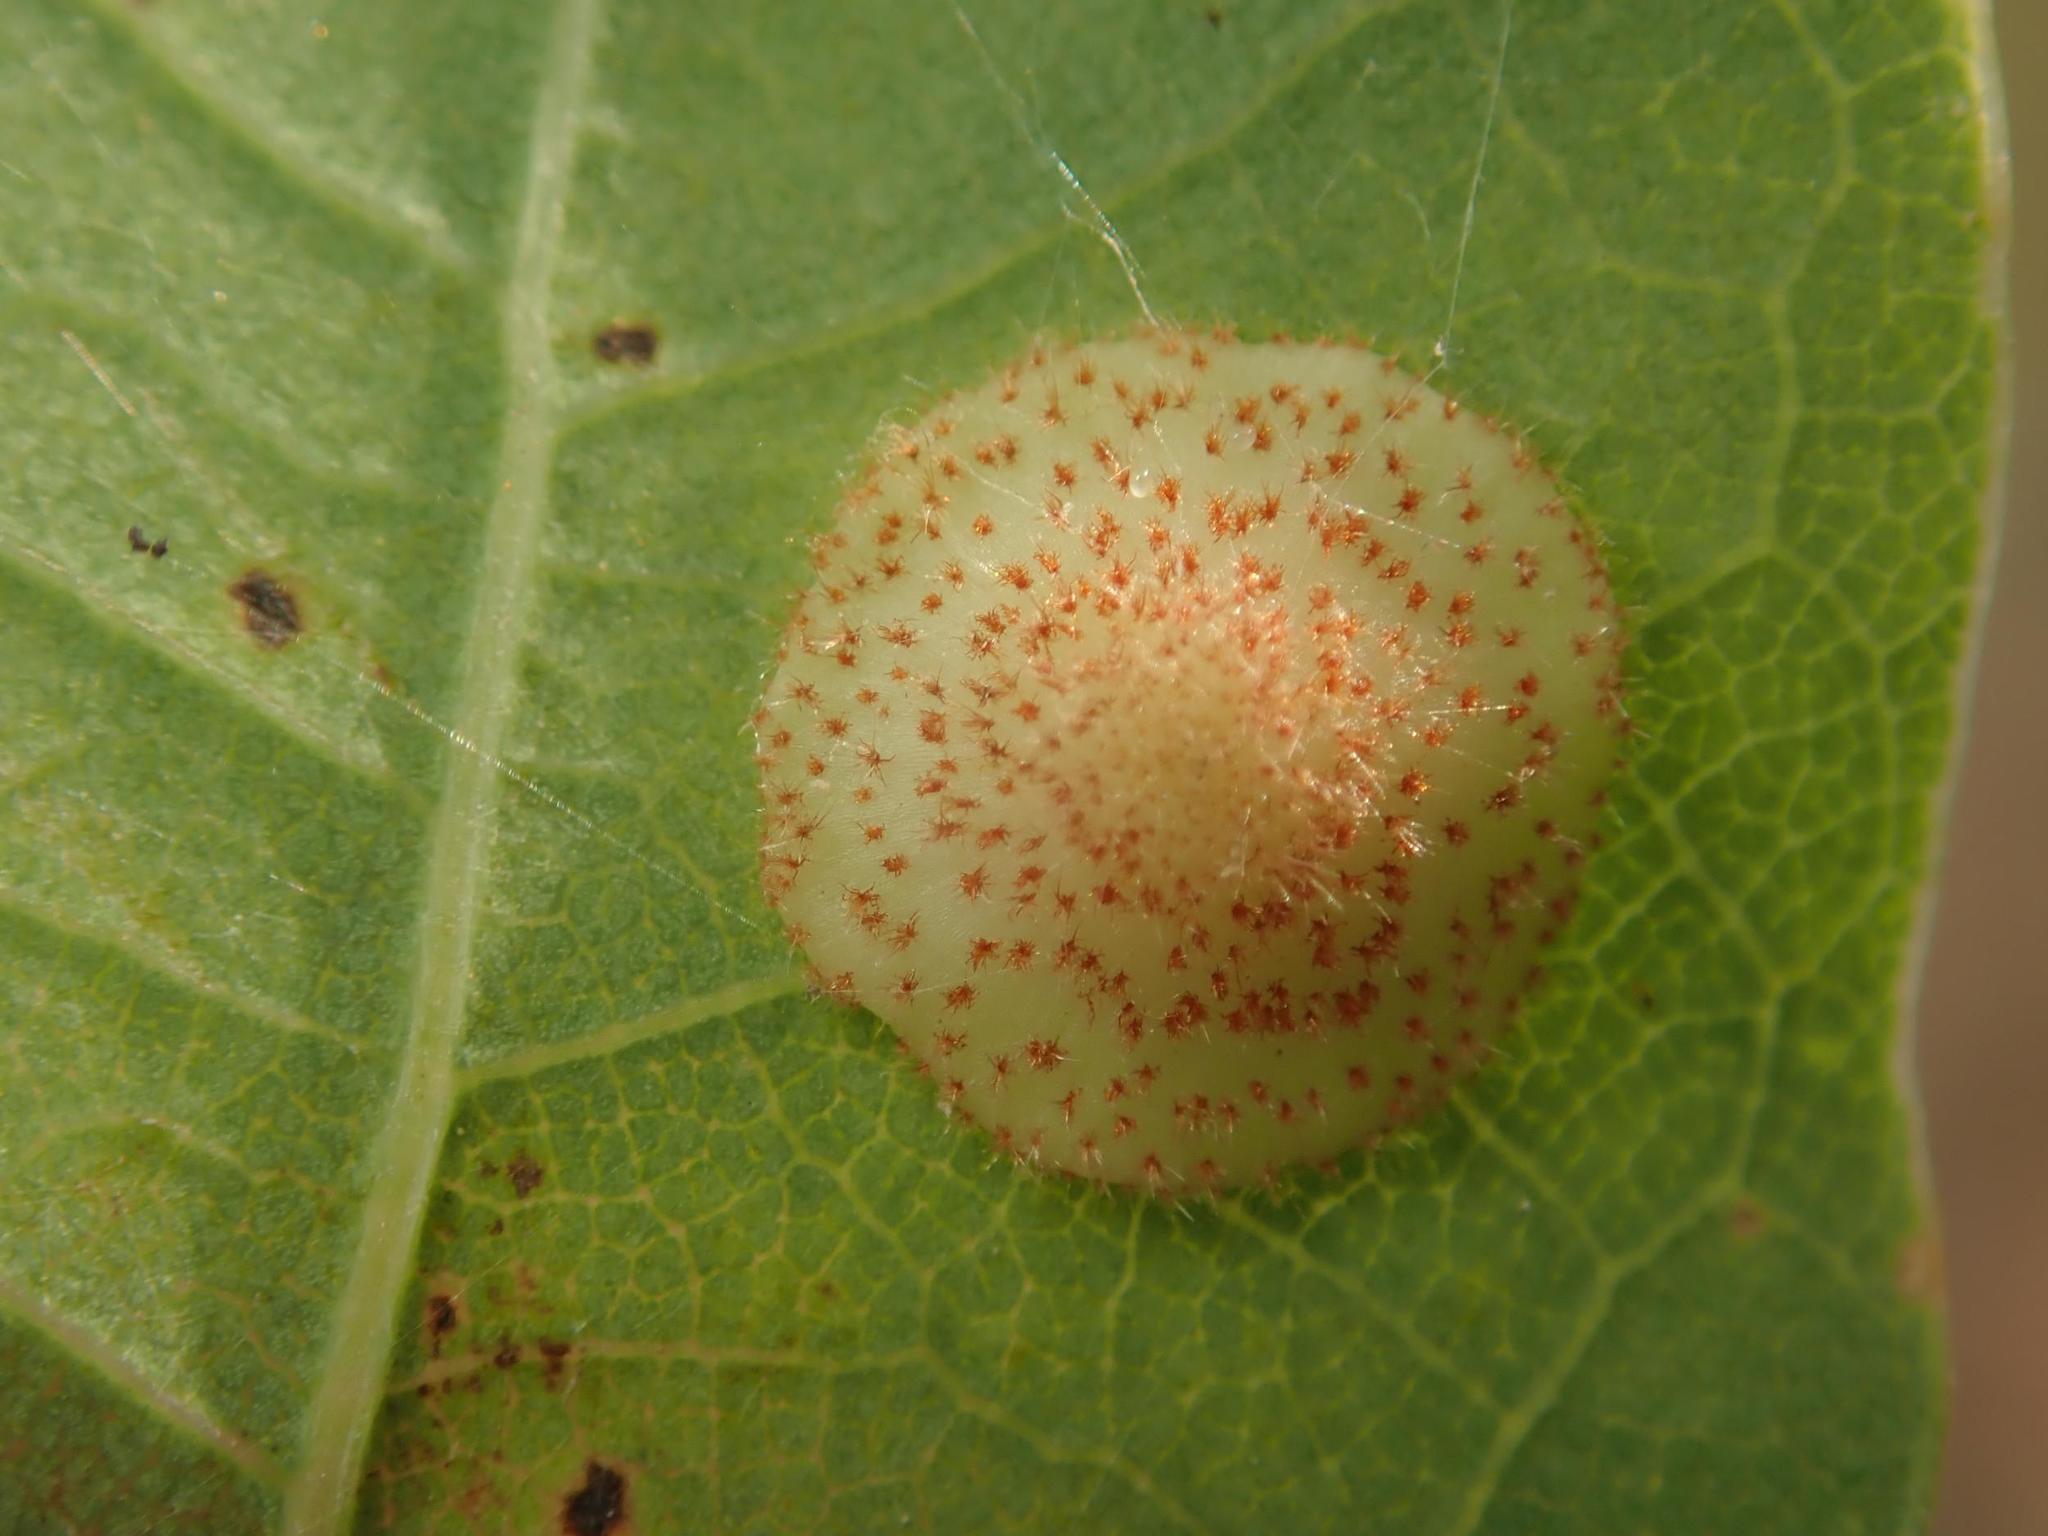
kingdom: Animalia
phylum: Arthropoda
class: Insecta
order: Hymenoptera
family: Cynipidae
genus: Neuroterus
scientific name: Neuroterus quercusbaccarum
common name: Common spangle gall
